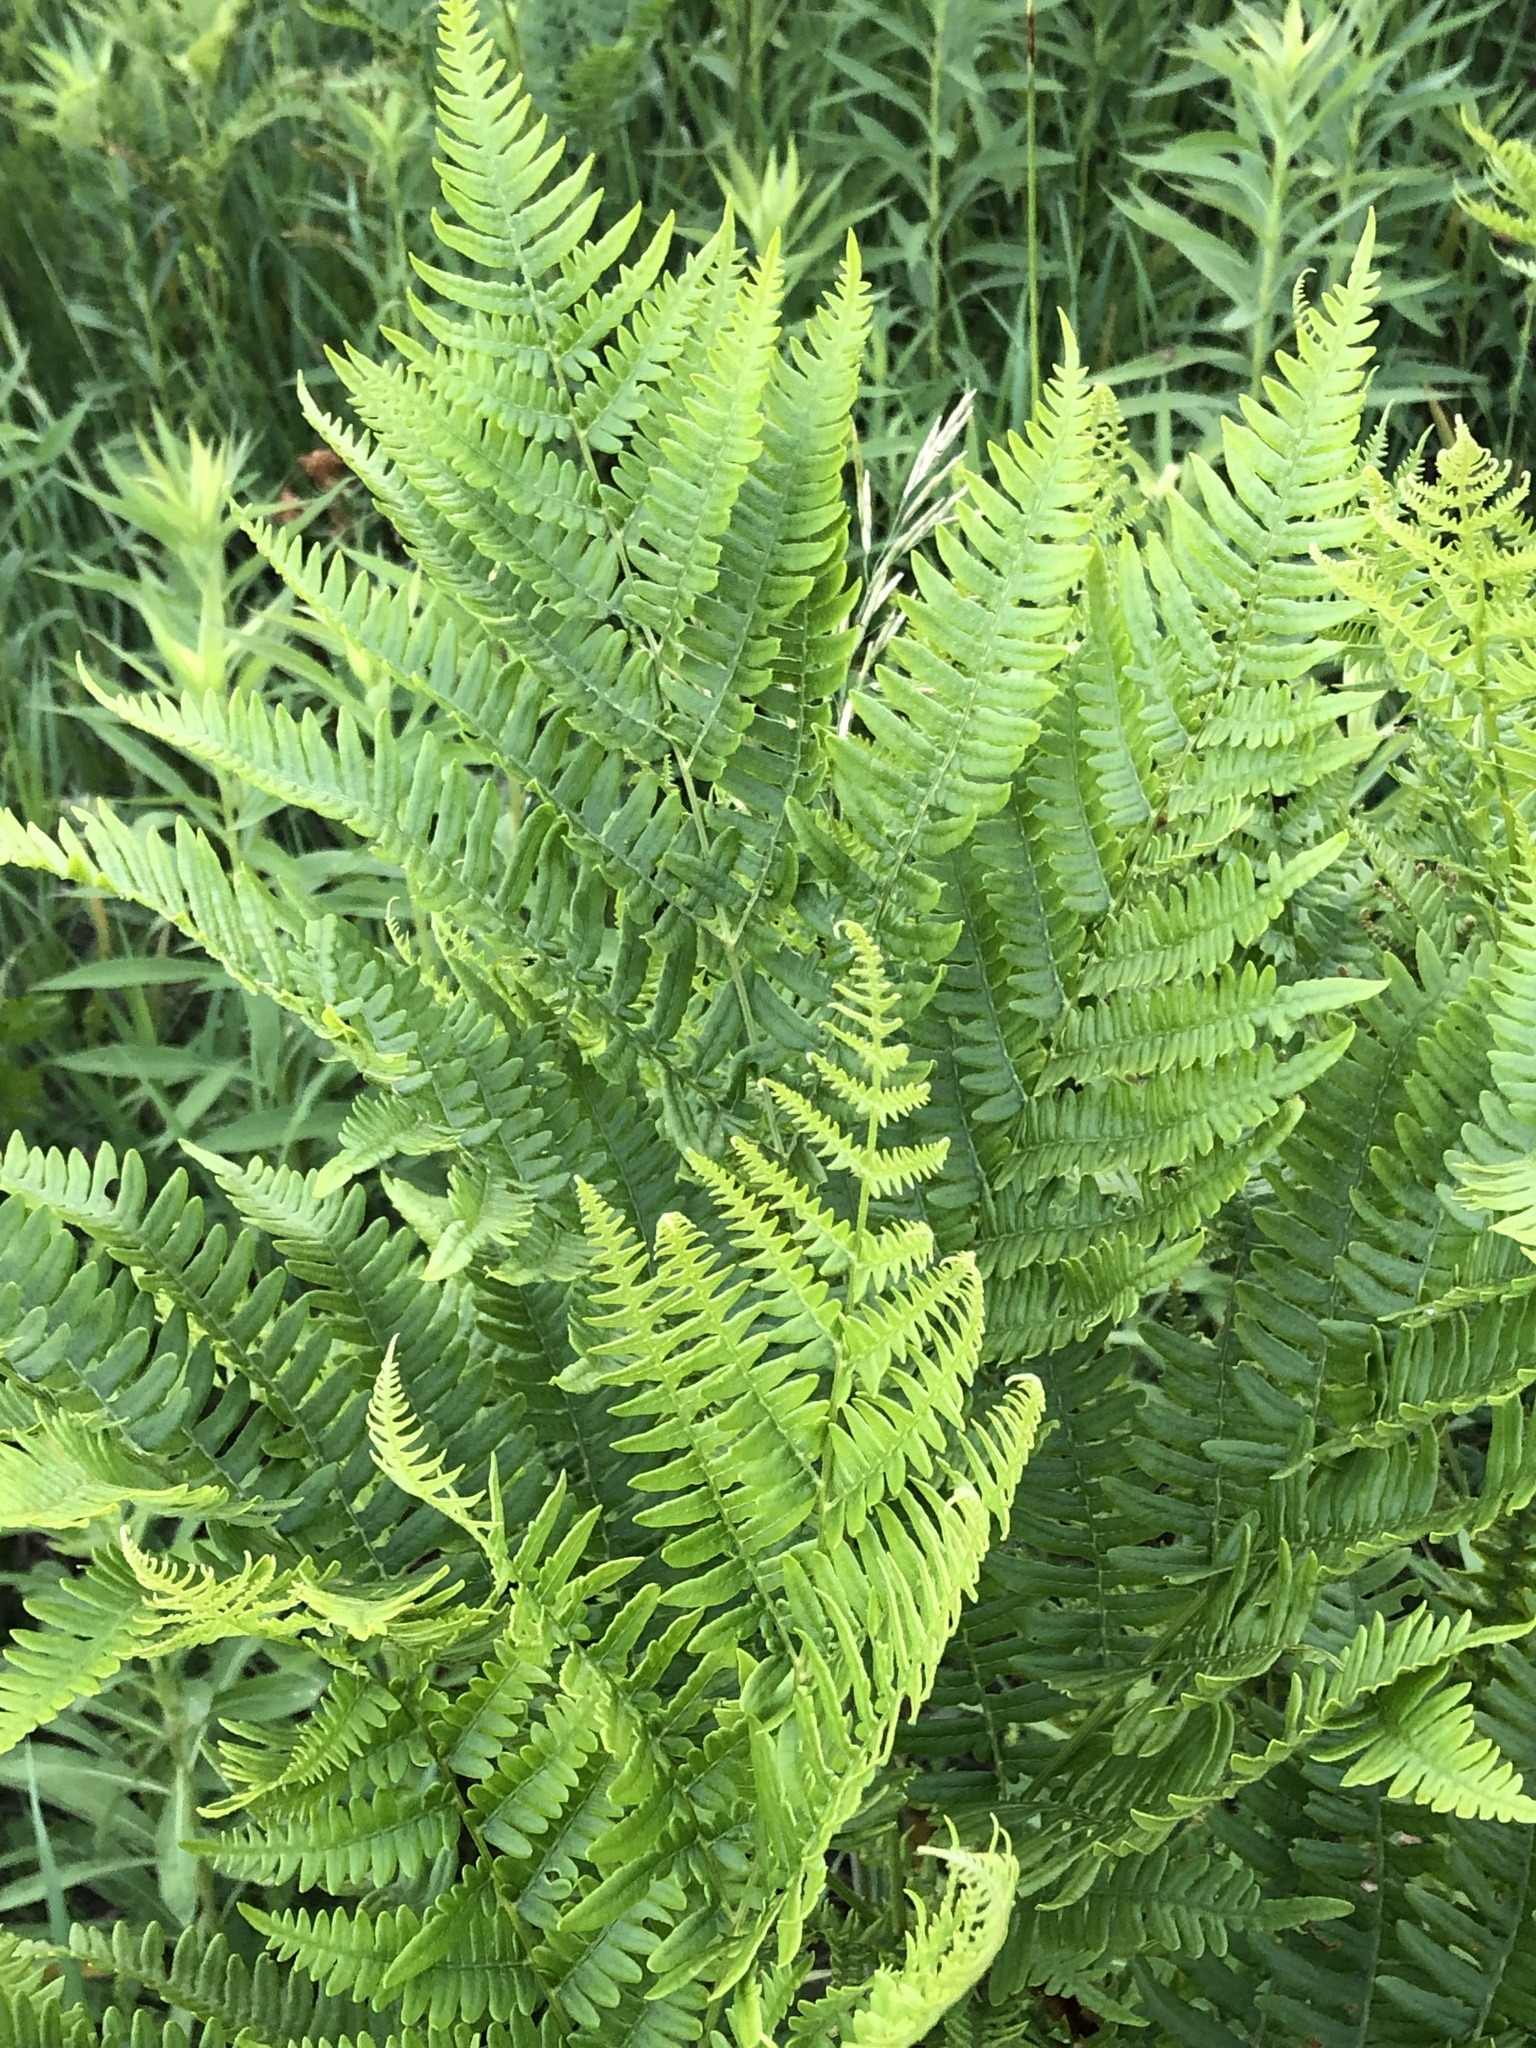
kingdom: Plantae
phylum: Tracheophyta
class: Polypodiopsida
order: Polypodiales
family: Dennstaedtiaceae
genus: Pteridium
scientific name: Pteridium aquilinum
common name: Bracken
